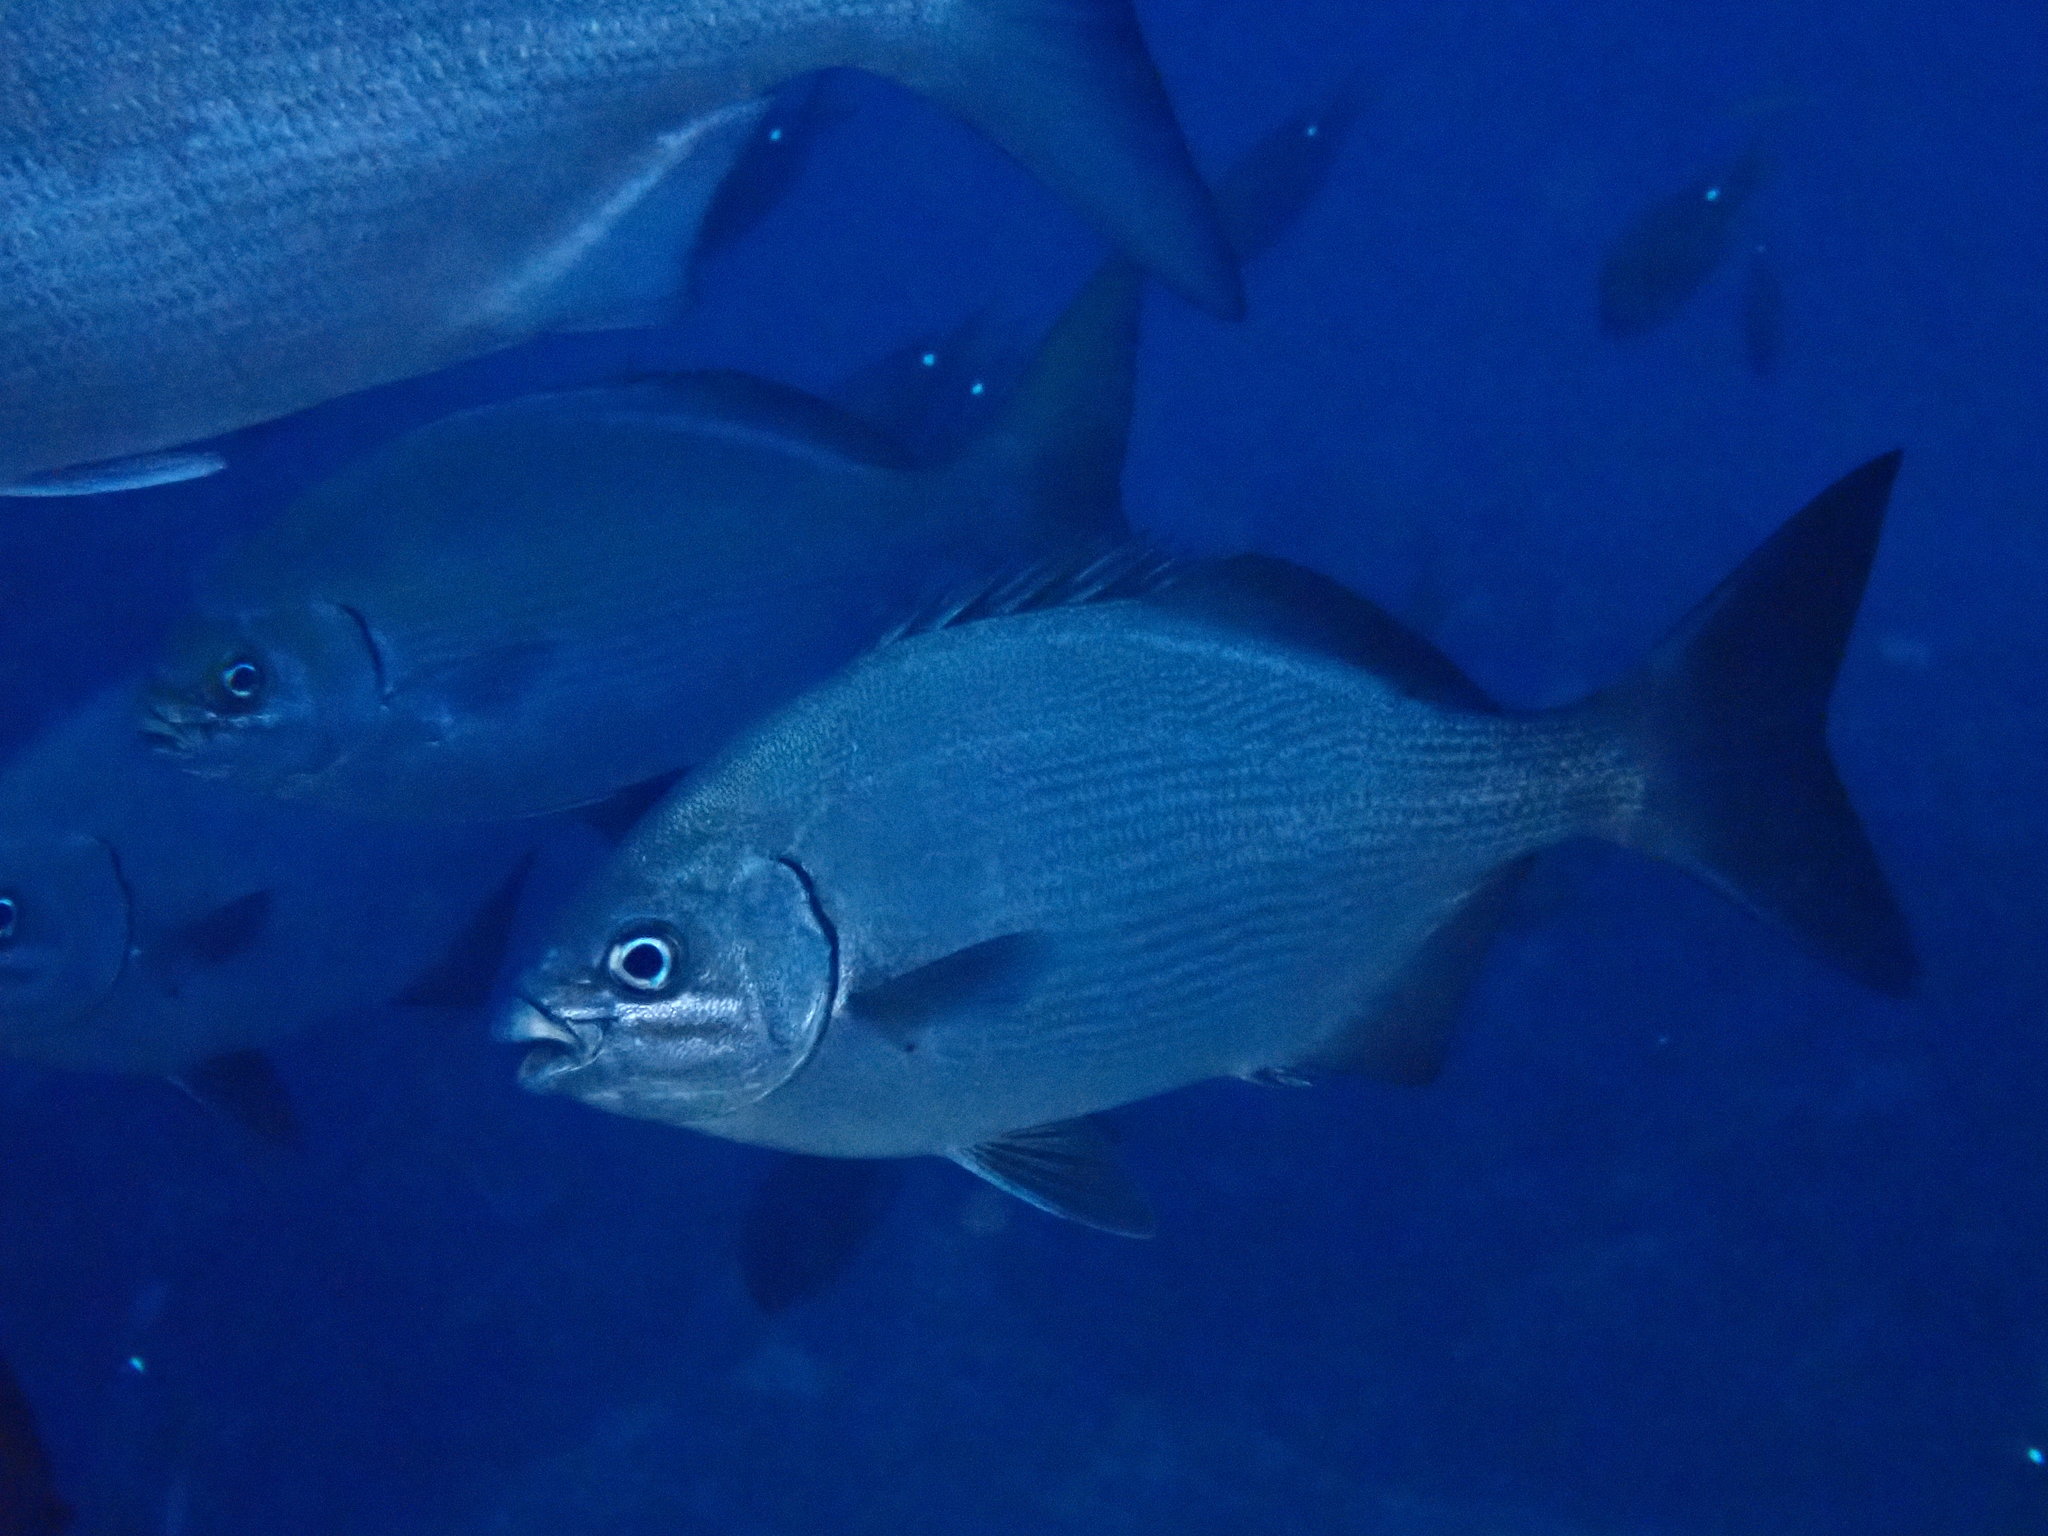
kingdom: Animalia
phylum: Chordata
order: Perciformes
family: Kyphosidae
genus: Kyphosus
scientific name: Kyphosus bigibbus
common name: Brown chub
